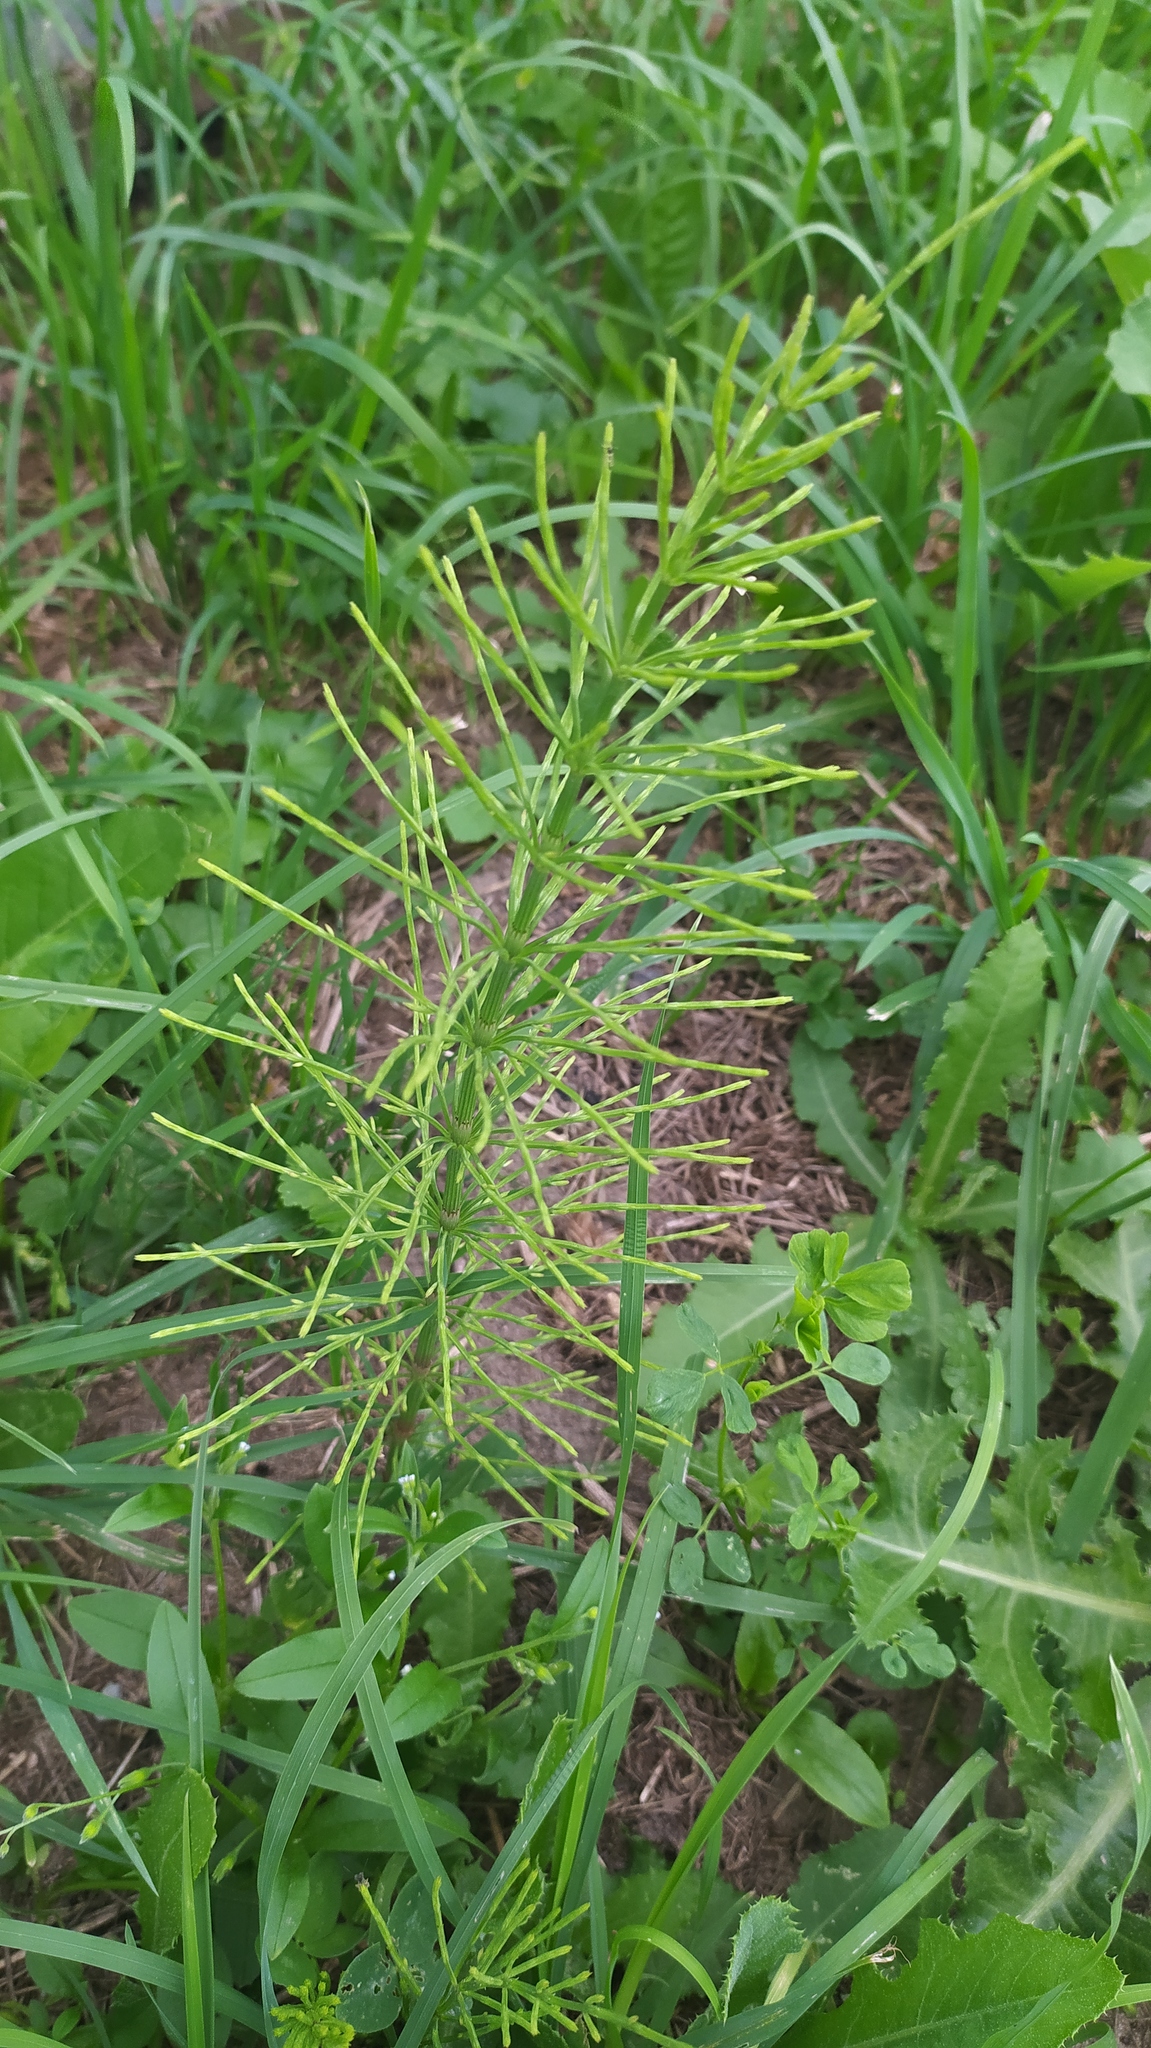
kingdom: Plantae
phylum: Tracheophyta
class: Polypodiopsida
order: Equisetales
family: Equisetaceae
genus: Equisetum
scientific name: Equisetum arvense
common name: Field horsetail
